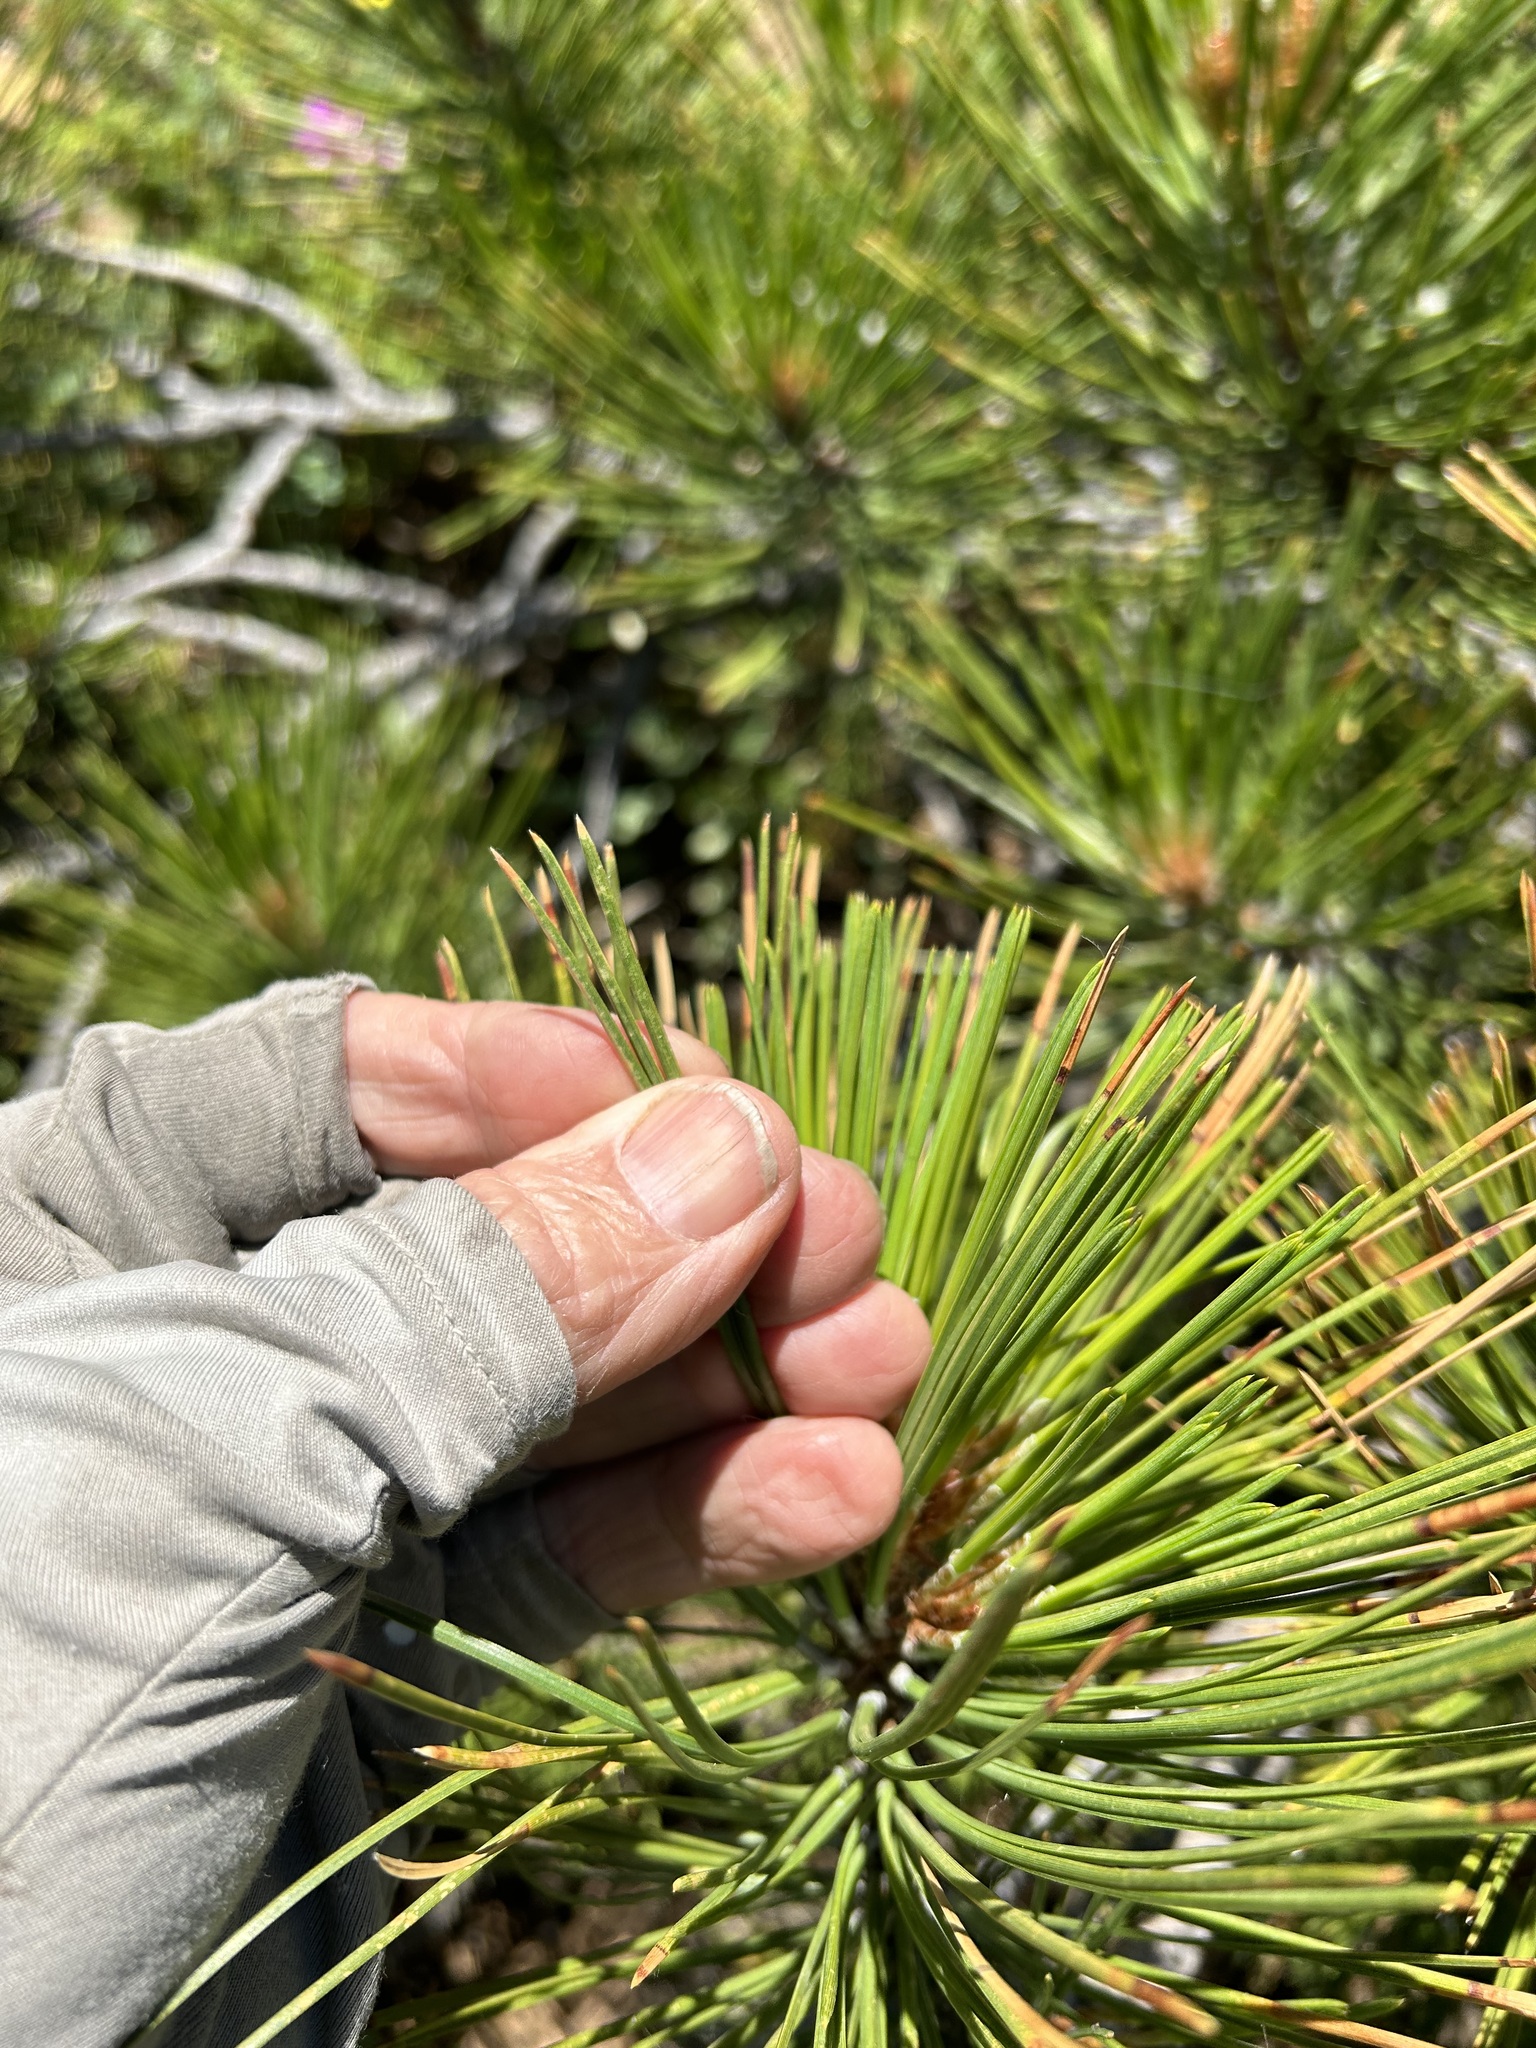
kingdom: Plantae
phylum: Tracheophyta
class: Pinopsida
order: Pinales
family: Pinaceae
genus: Pinus
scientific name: Pinus ponderosa
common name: Western yellow-pine
